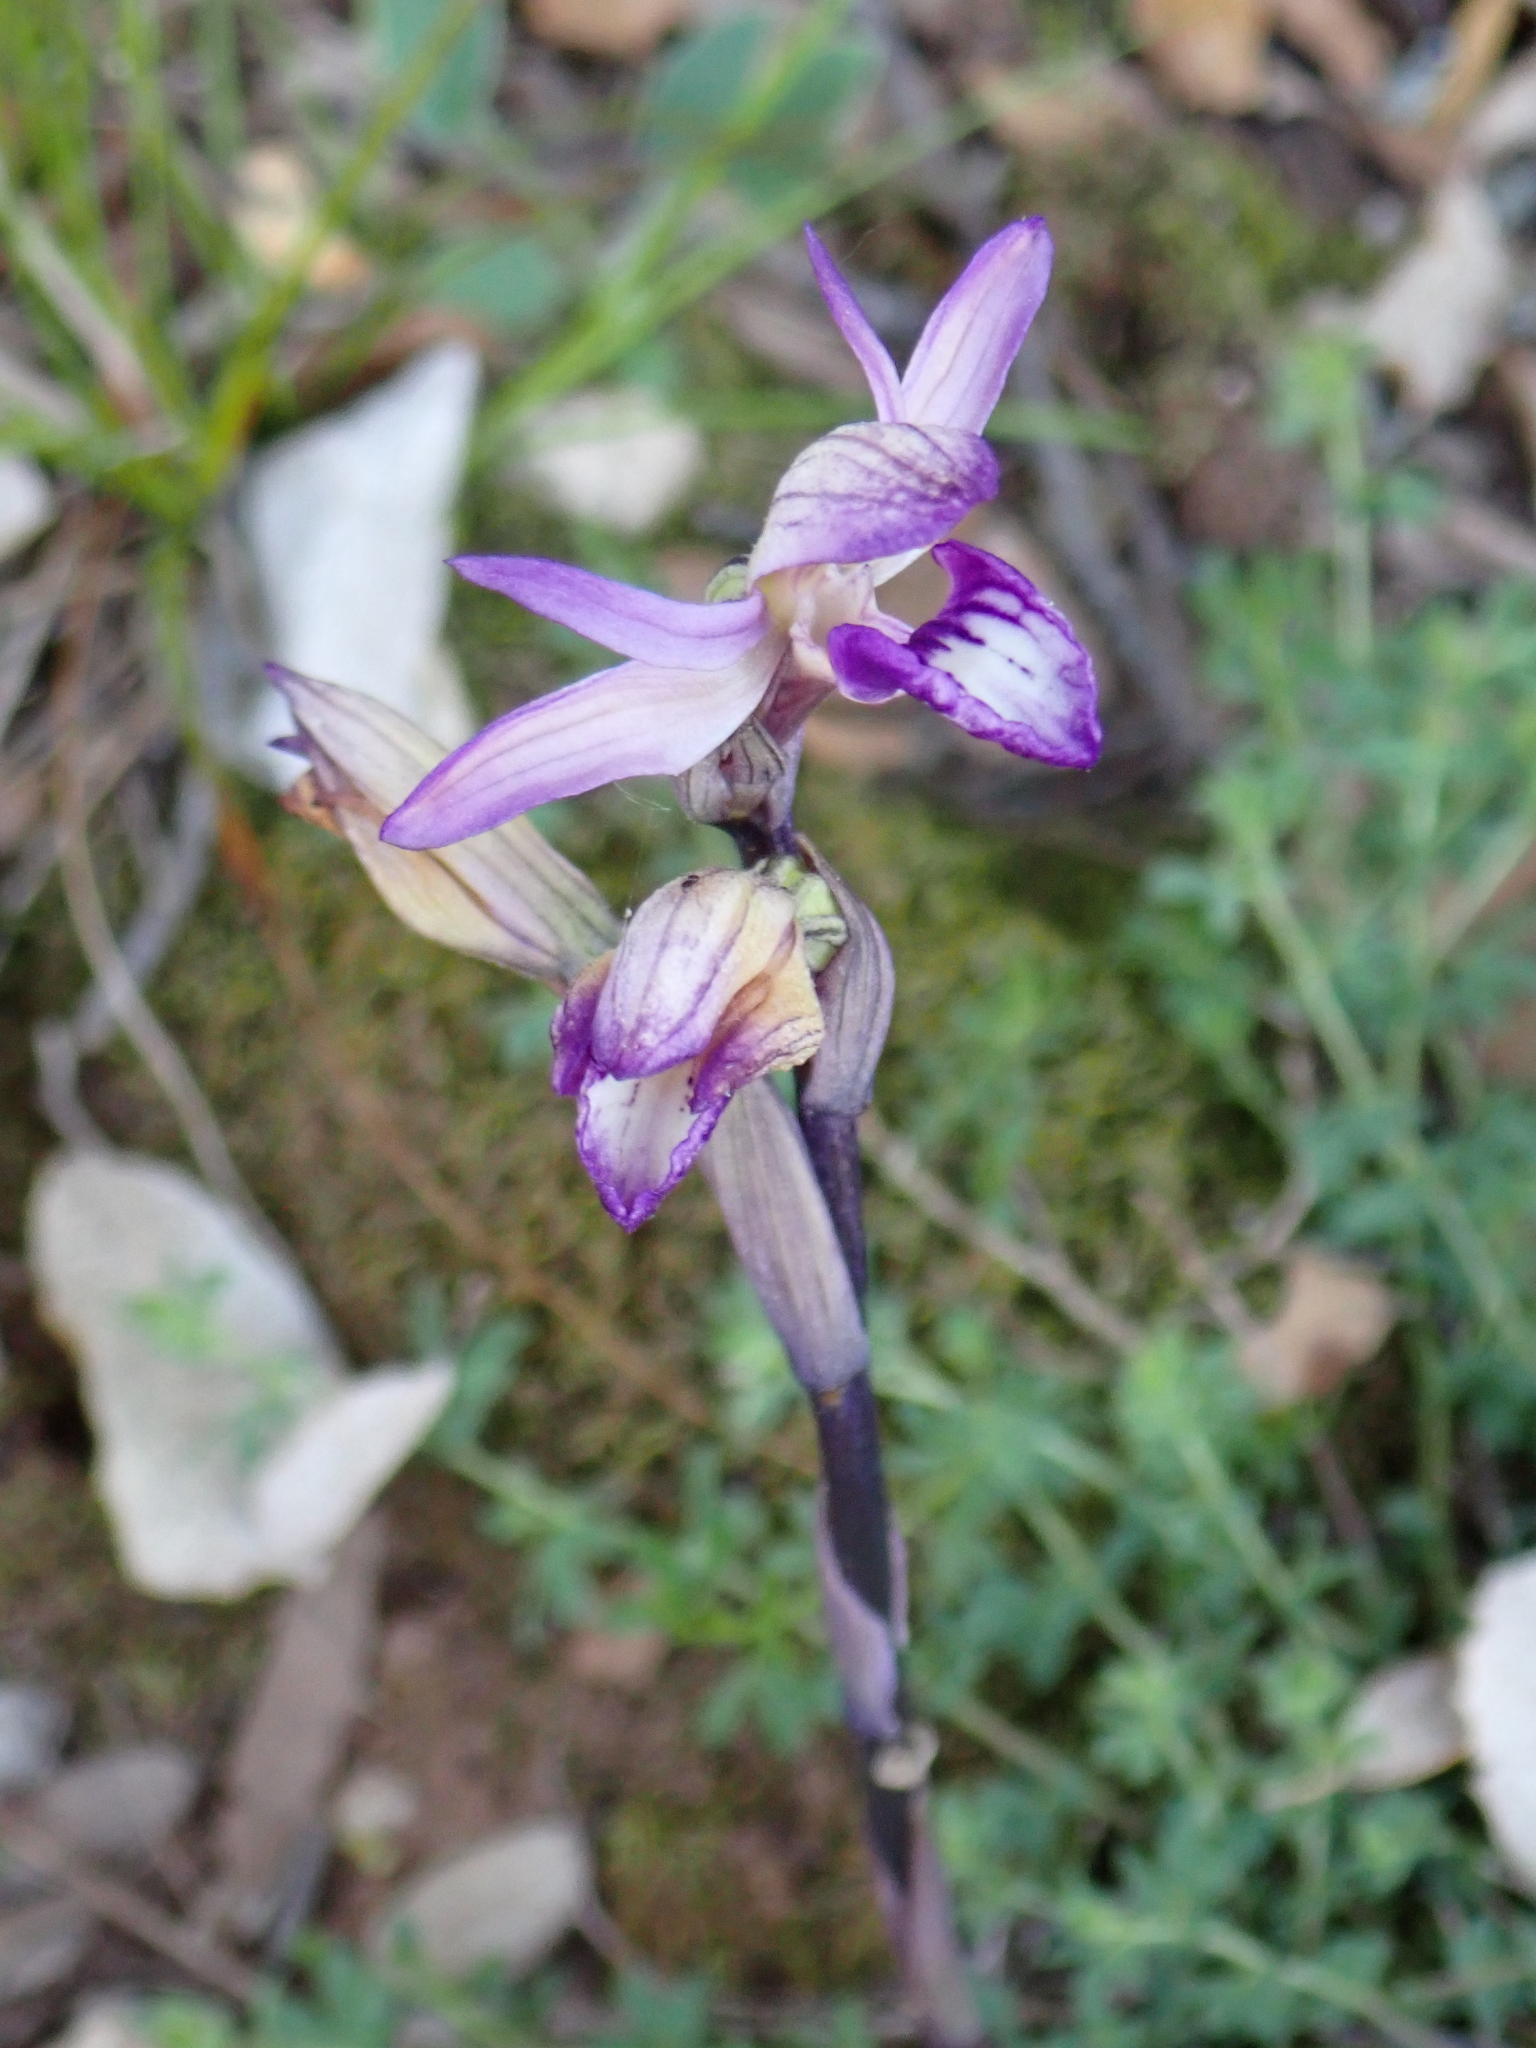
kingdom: Plantae
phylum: Tracheophyta
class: Liliopsida
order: Asparagales
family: Orchidaceae
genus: Limodorum
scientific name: Limodorum abortivum
